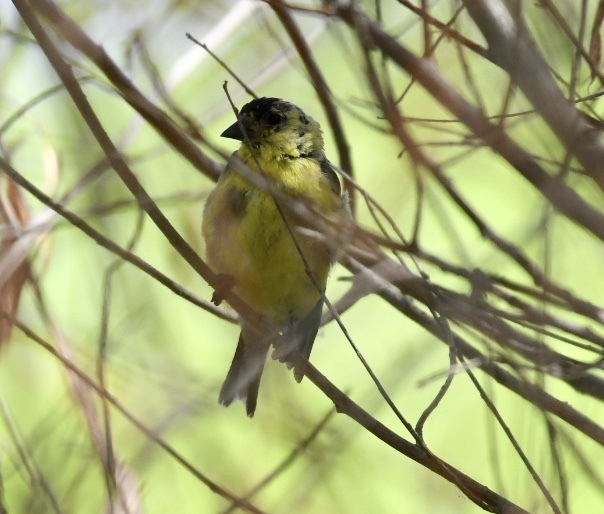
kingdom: Animalia
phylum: Chordata
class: Aves
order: Passeriformes
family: Fringillidae
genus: Spinus
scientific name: Spinus psaltria
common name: Lesser goldfinch
